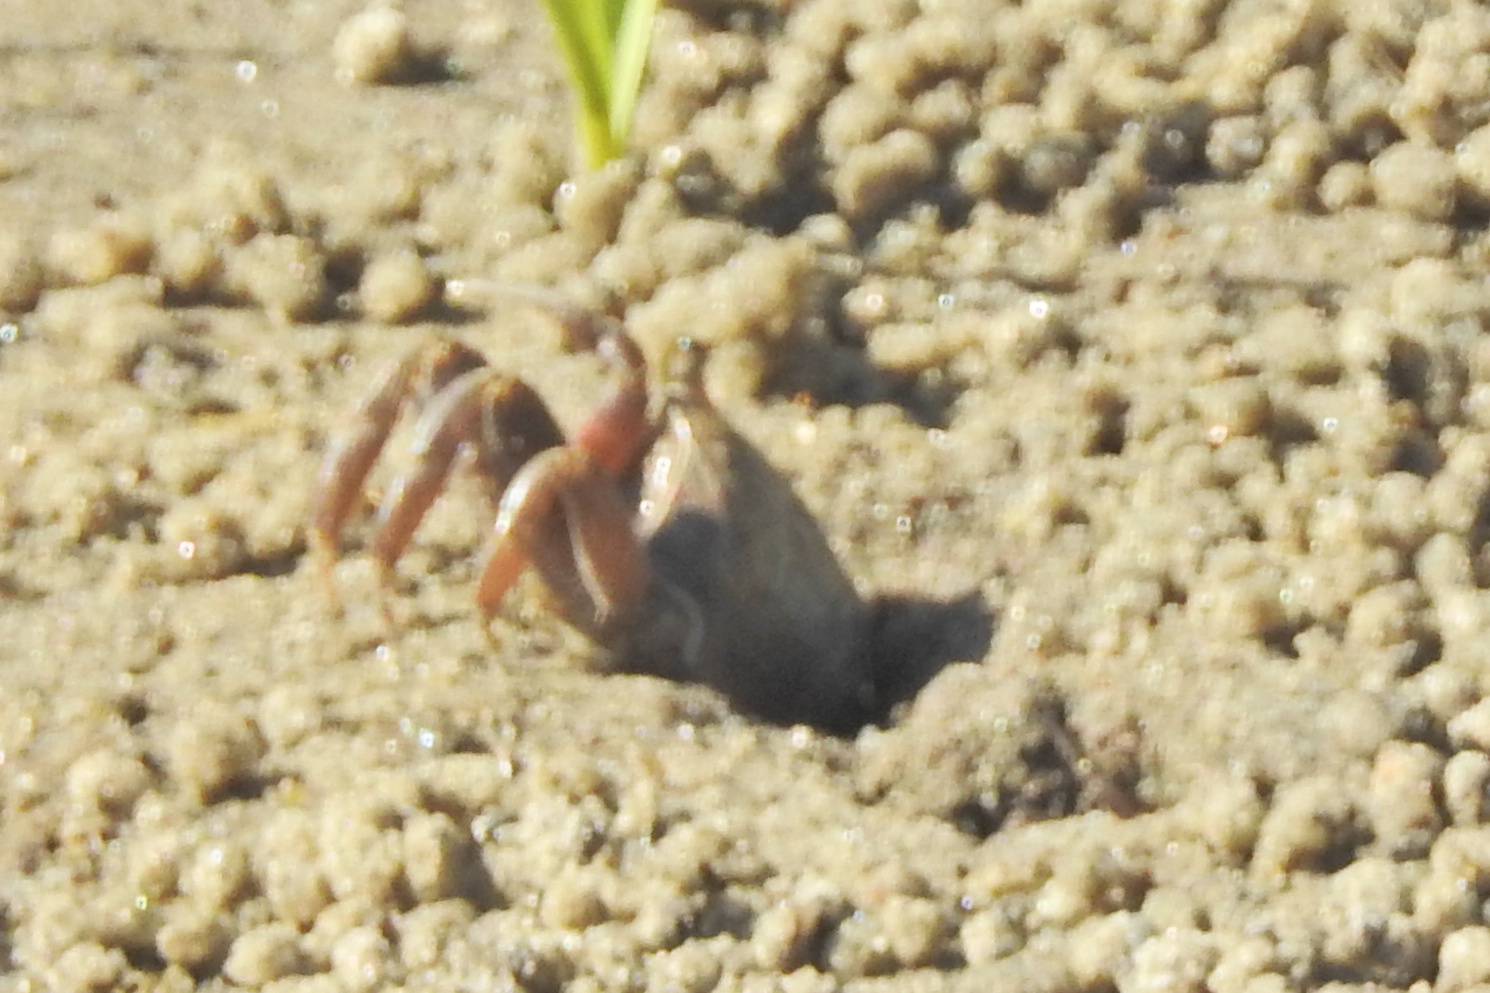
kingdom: Animalia
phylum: Arthropoda
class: Malacostraca
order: Decapoda
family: Ocypodidae
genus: Leptuca
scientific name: Leptuca pugilator
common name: Atlantic sand fiddler crab
